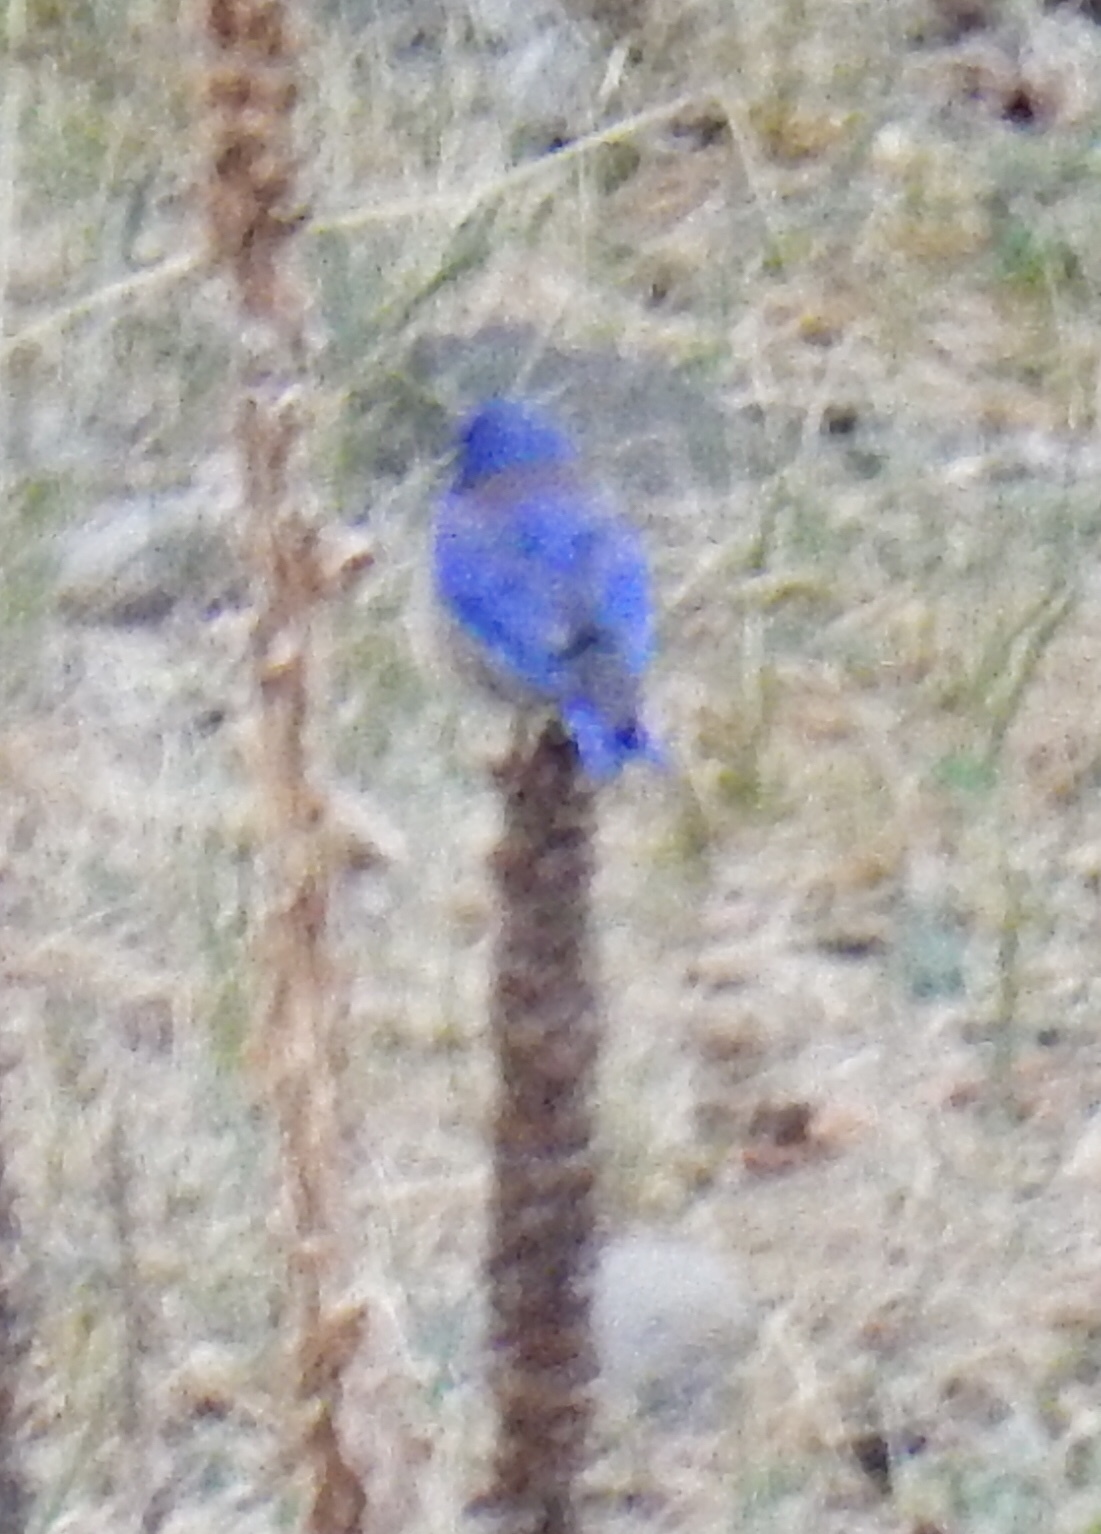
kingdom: Animalia
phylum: Chordata
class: Aves
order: Passeriformes
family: Turdidae
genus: Sialia
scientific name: Sialia mexicana
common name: Western bluebird
